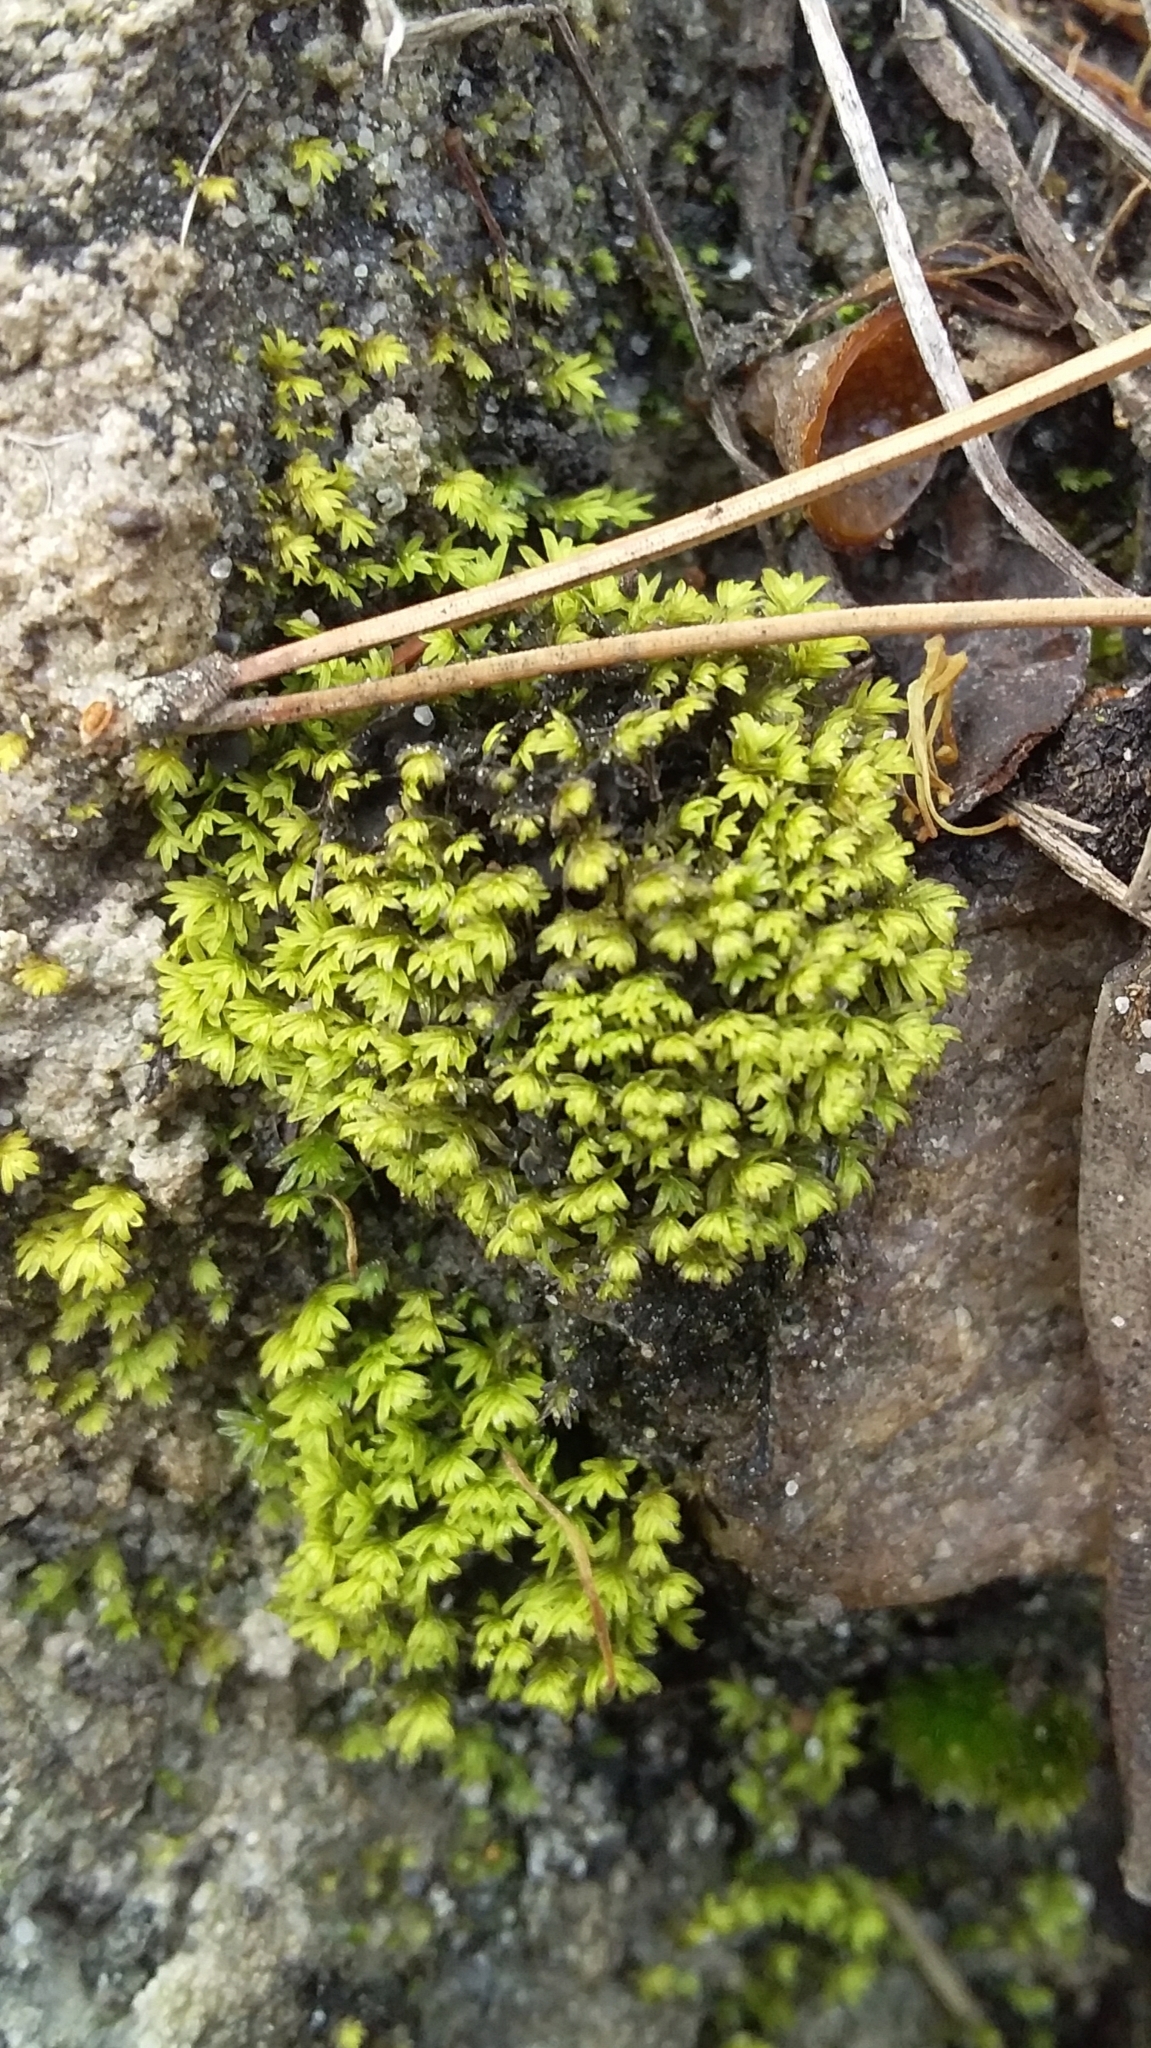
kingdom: Plantae
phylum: Bryophyta
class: Bryopsida
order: Dicranales
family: Fissidentaceae
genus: Fissidens
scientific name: Fissidens megalotis
